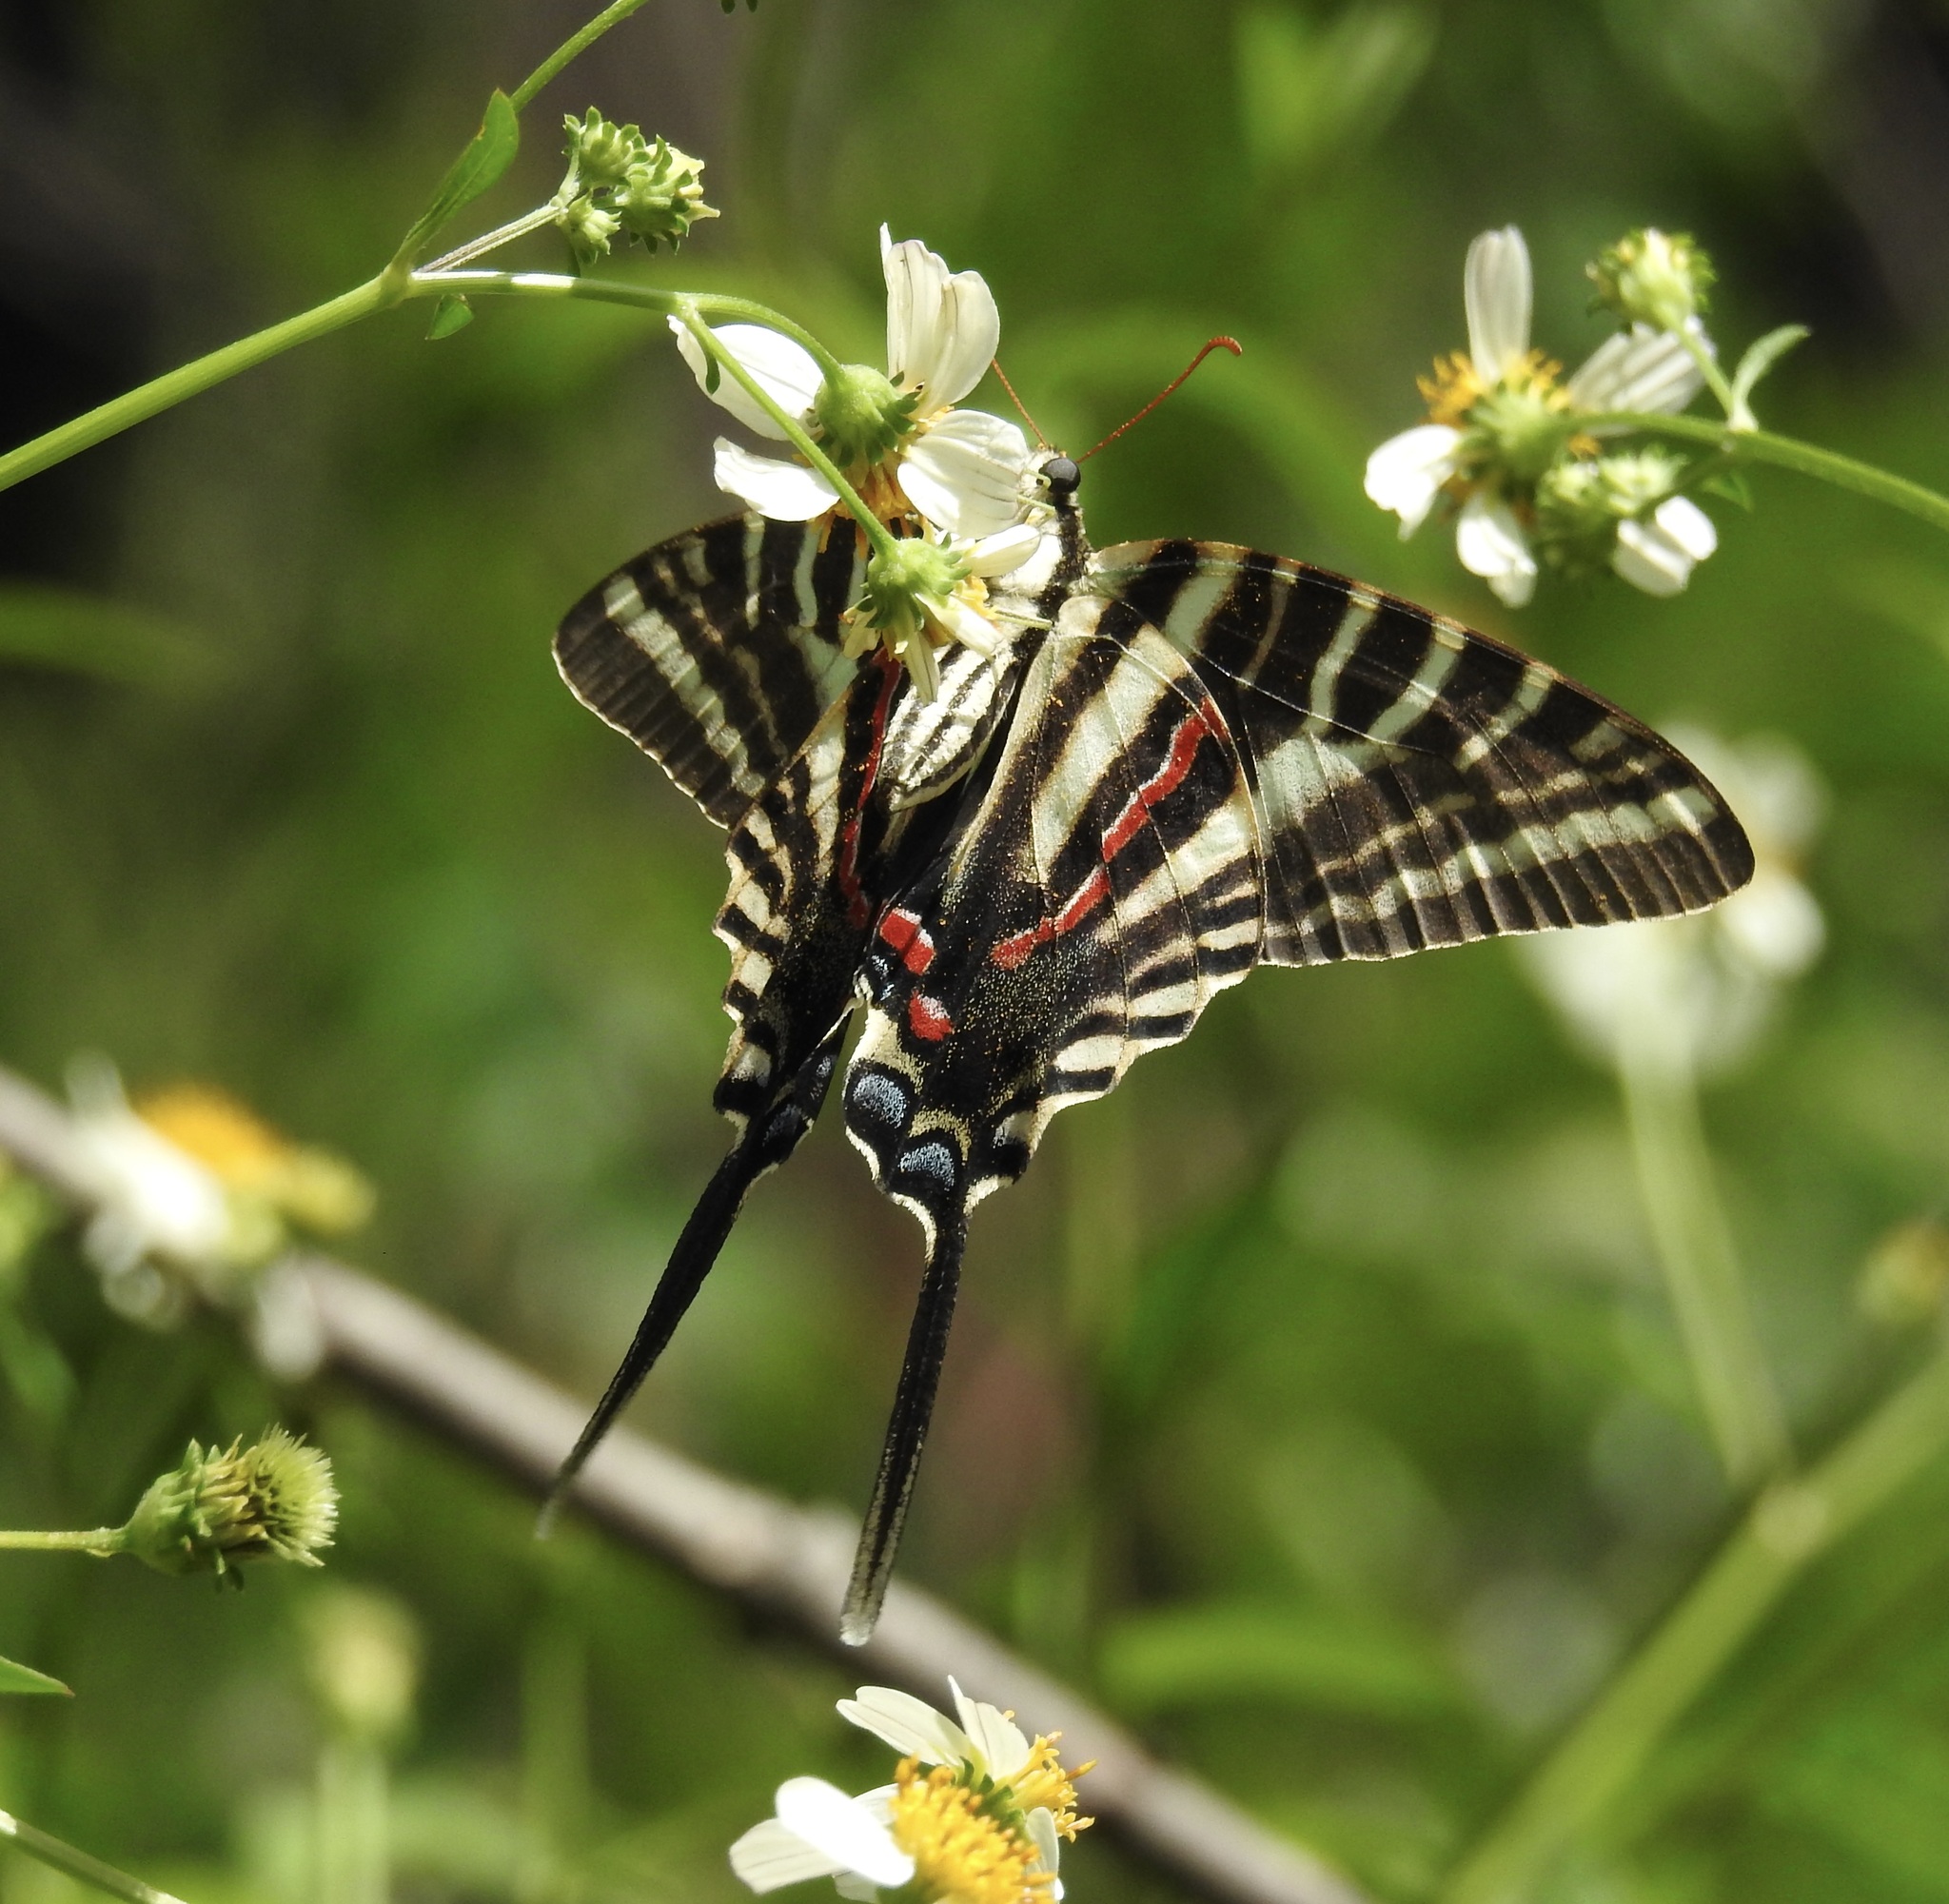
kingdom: Animalia
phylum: Arthropoda
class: Insecta
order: Lepidoptera
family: Papilionidae
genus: Protographium
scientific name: Protographium marcellus
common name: Zebra swallowtail
